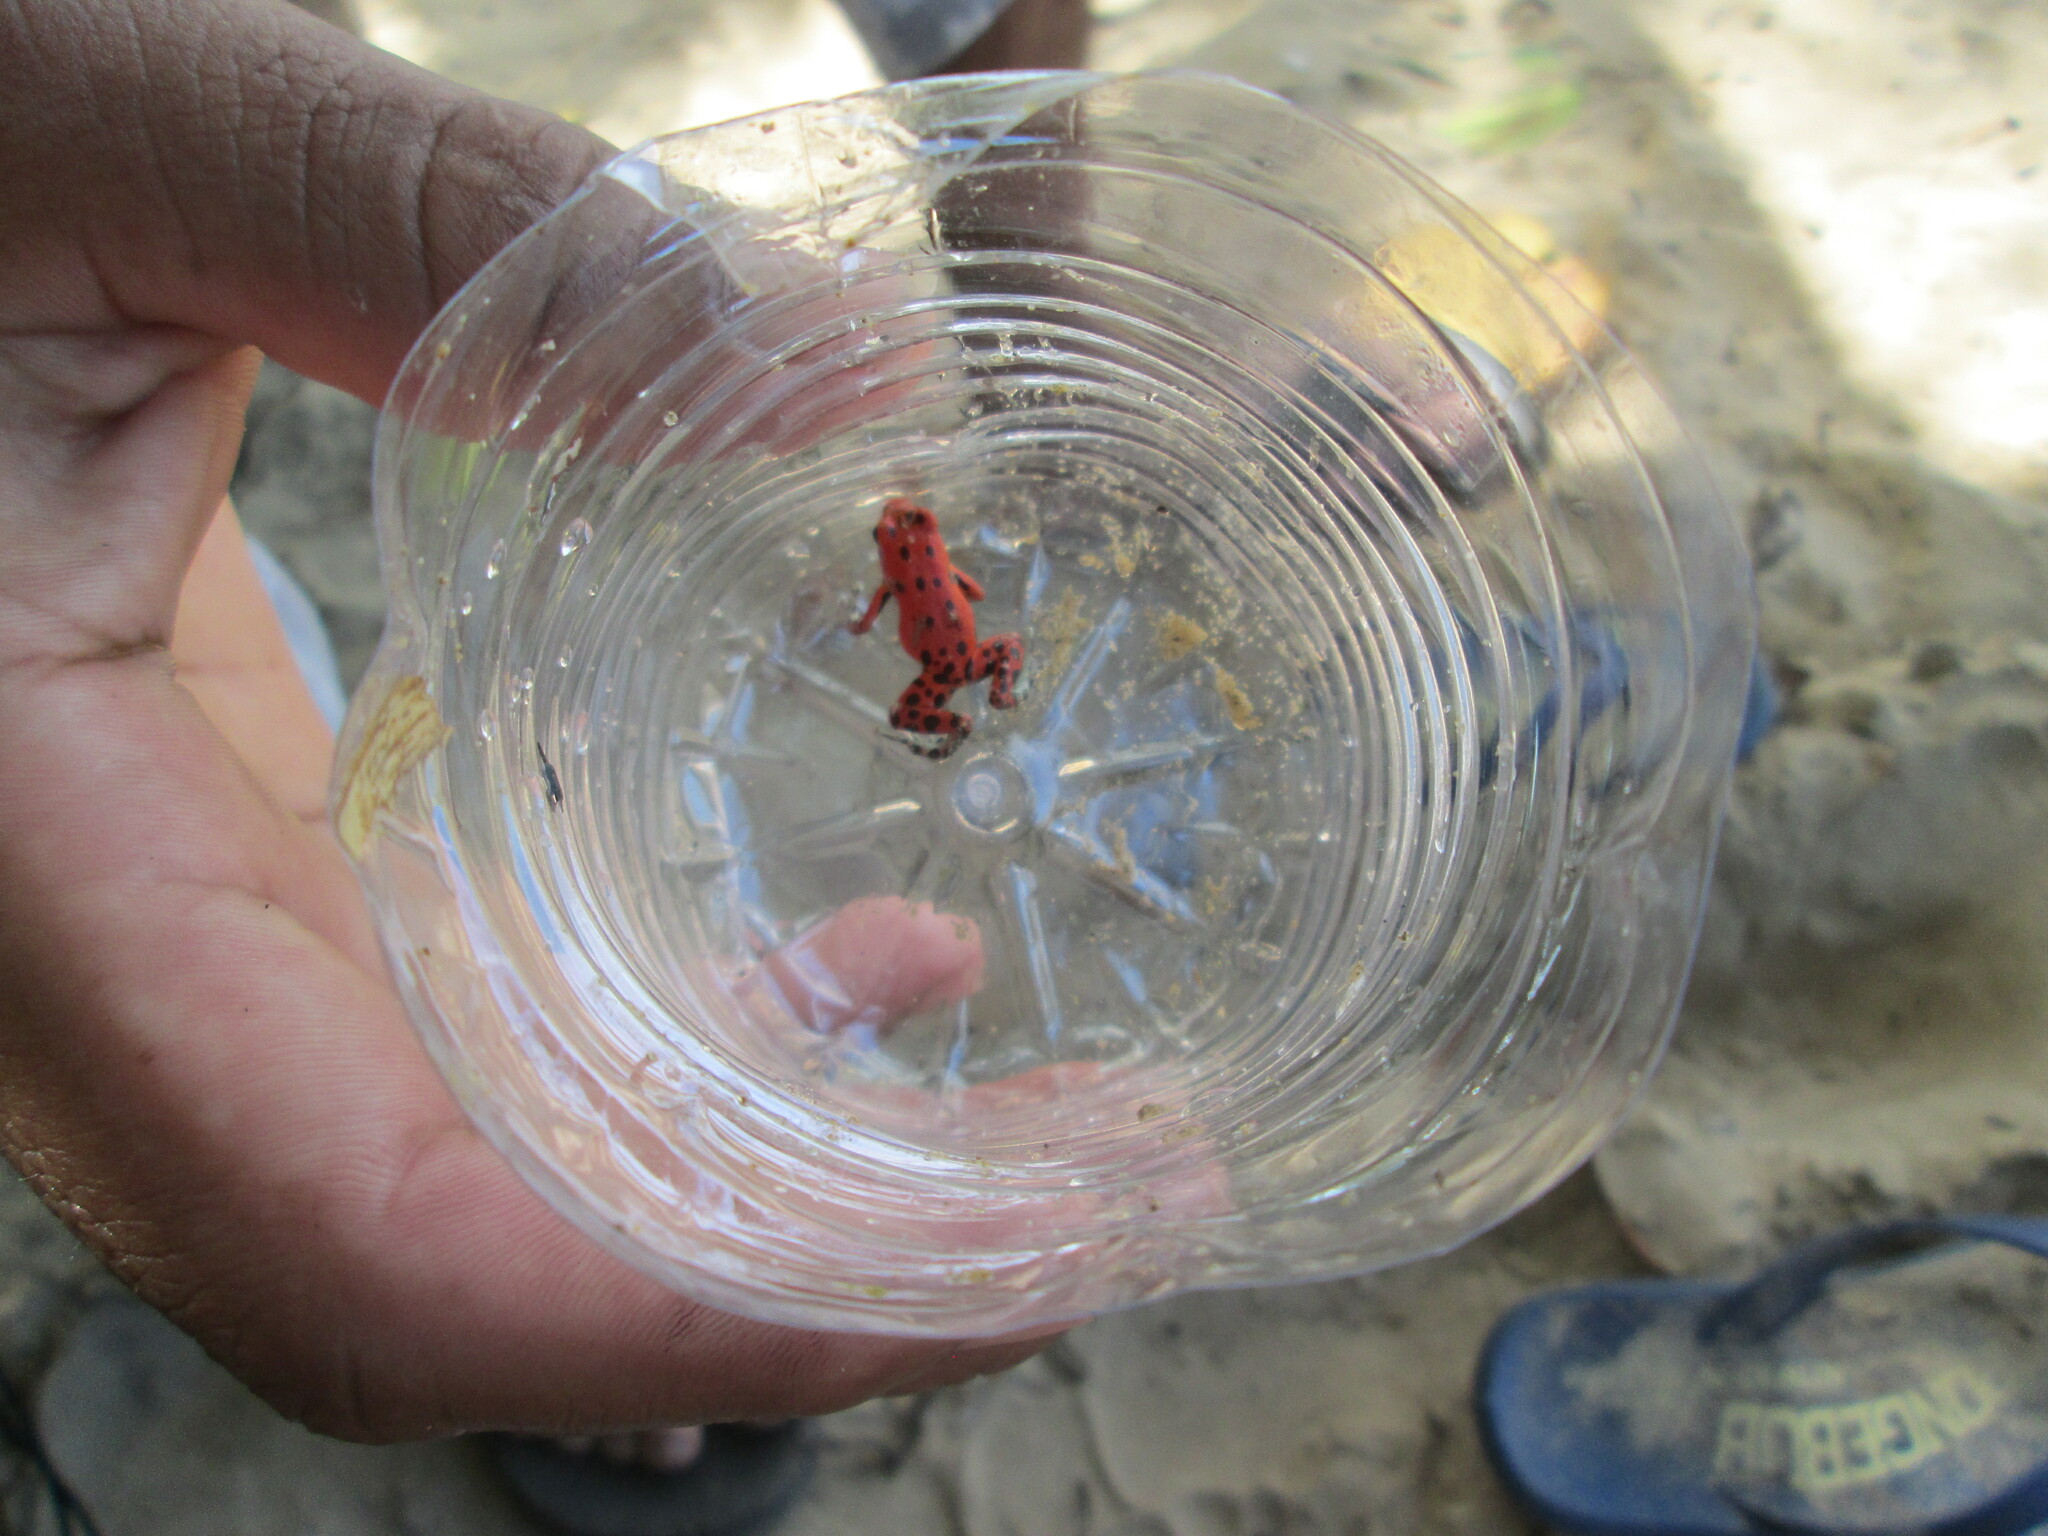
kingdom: Animalia
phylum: Chordata
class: Amphibia
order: Anura
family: Dendrobatidae
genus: Oophaga
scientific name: Oophaga pumilio
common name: Flaming poison frog
